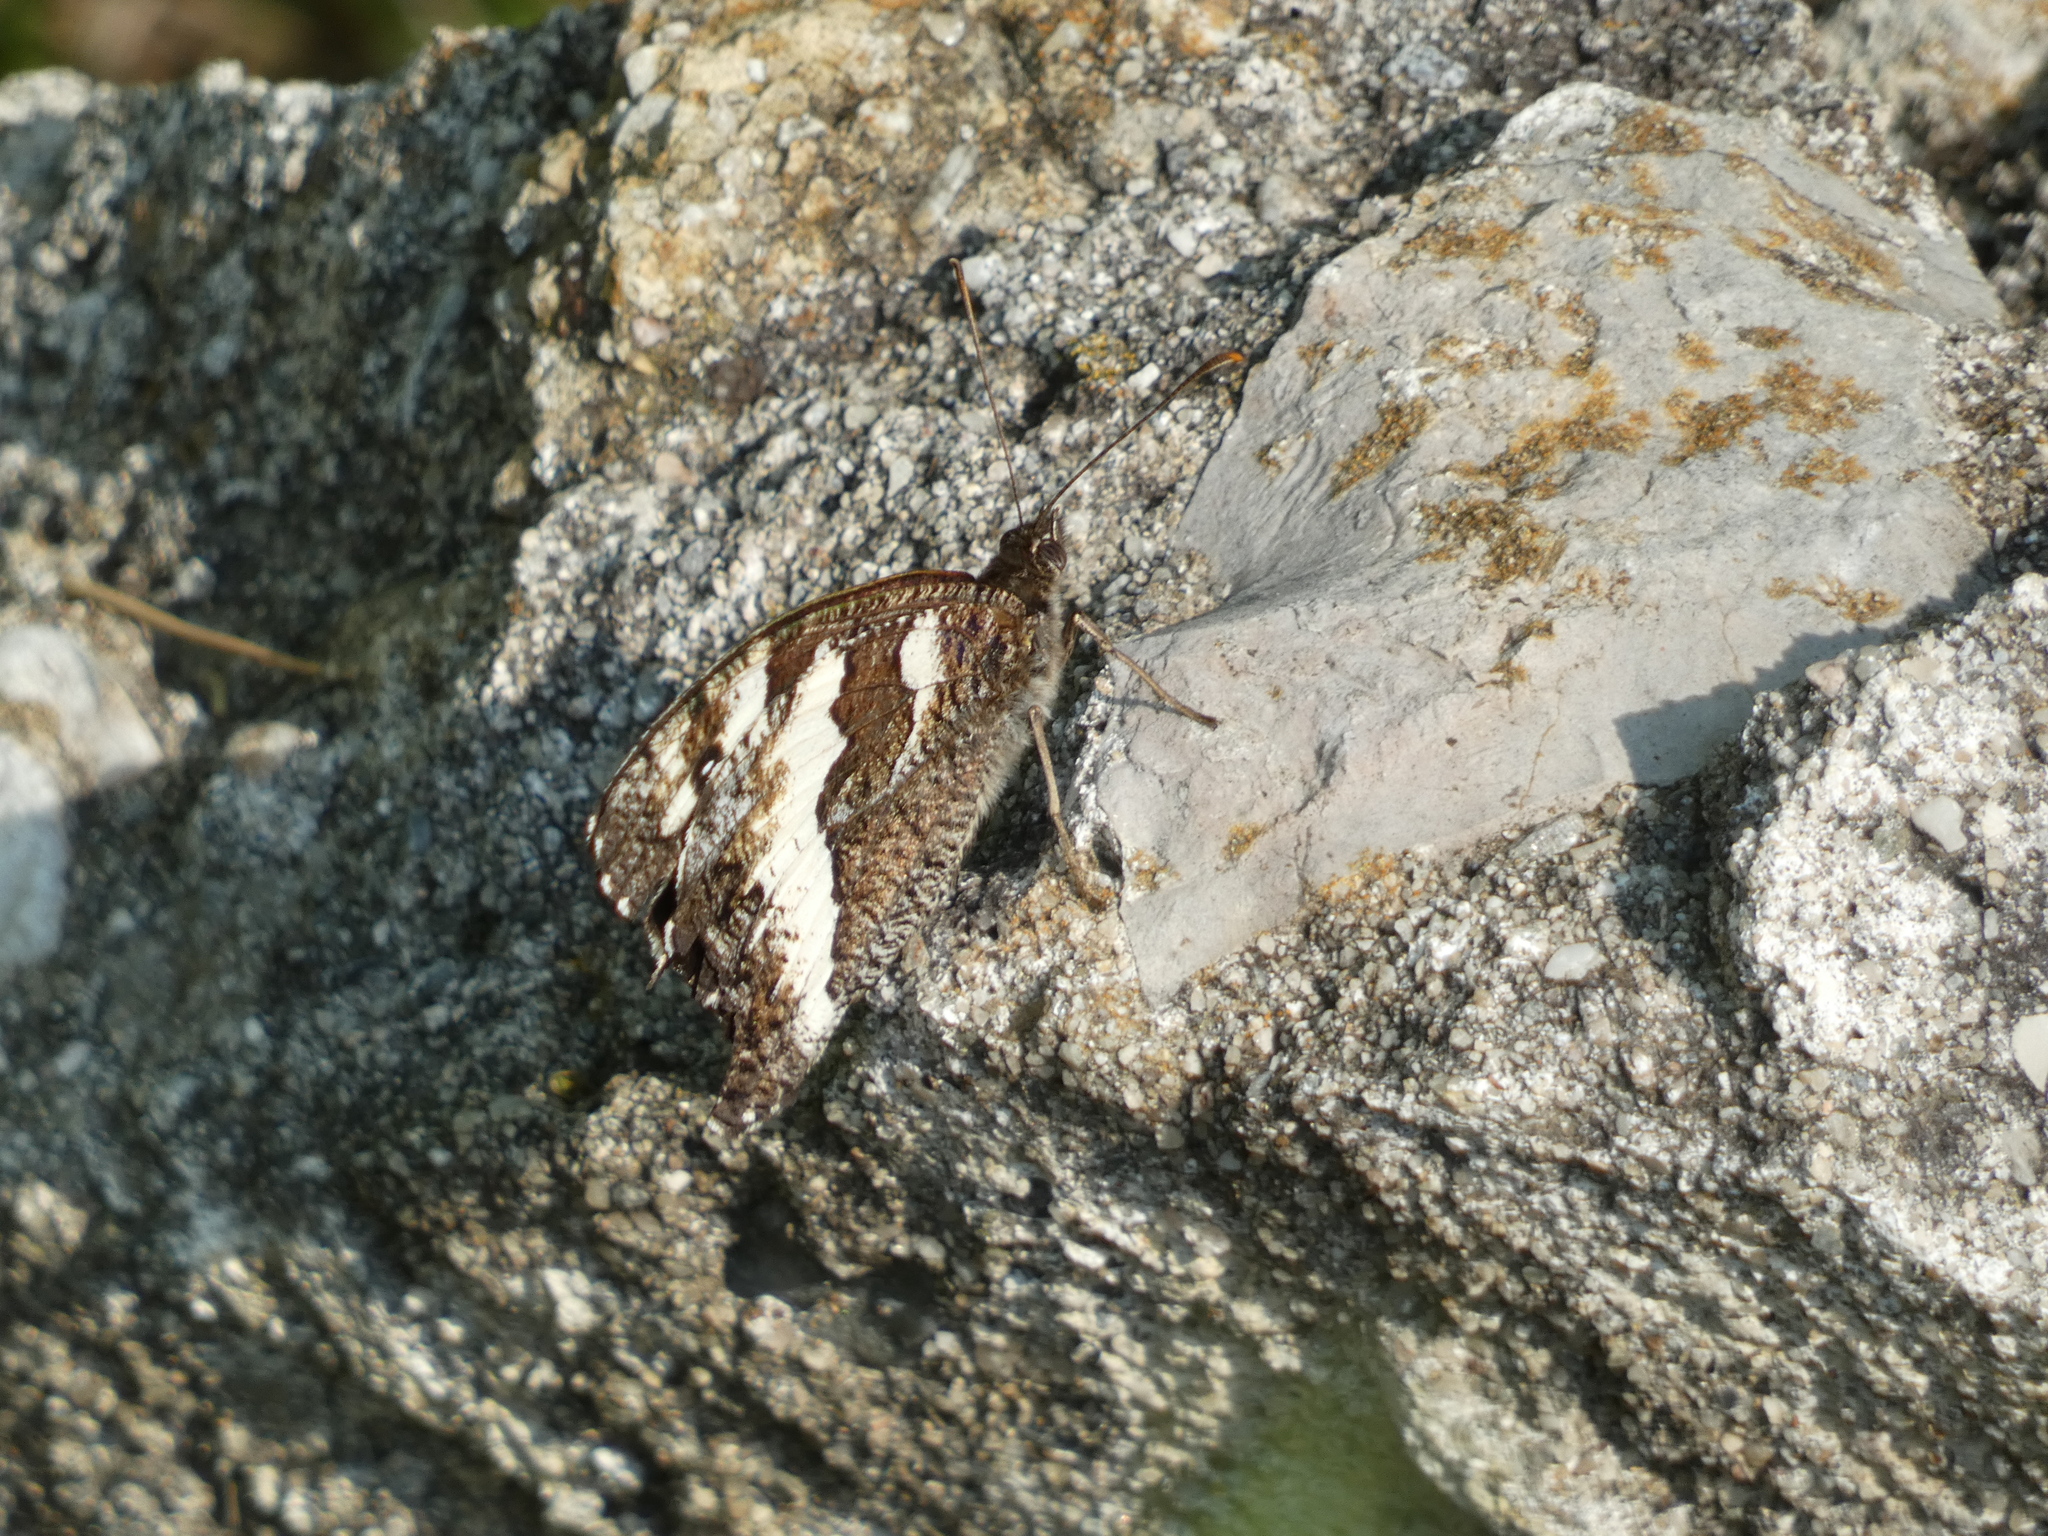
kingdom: Animalia
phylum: Arthropoda
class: Insecta
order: Lepidoptera
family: Lycaenidae
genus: Loweia
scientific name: Loweia tityrus
